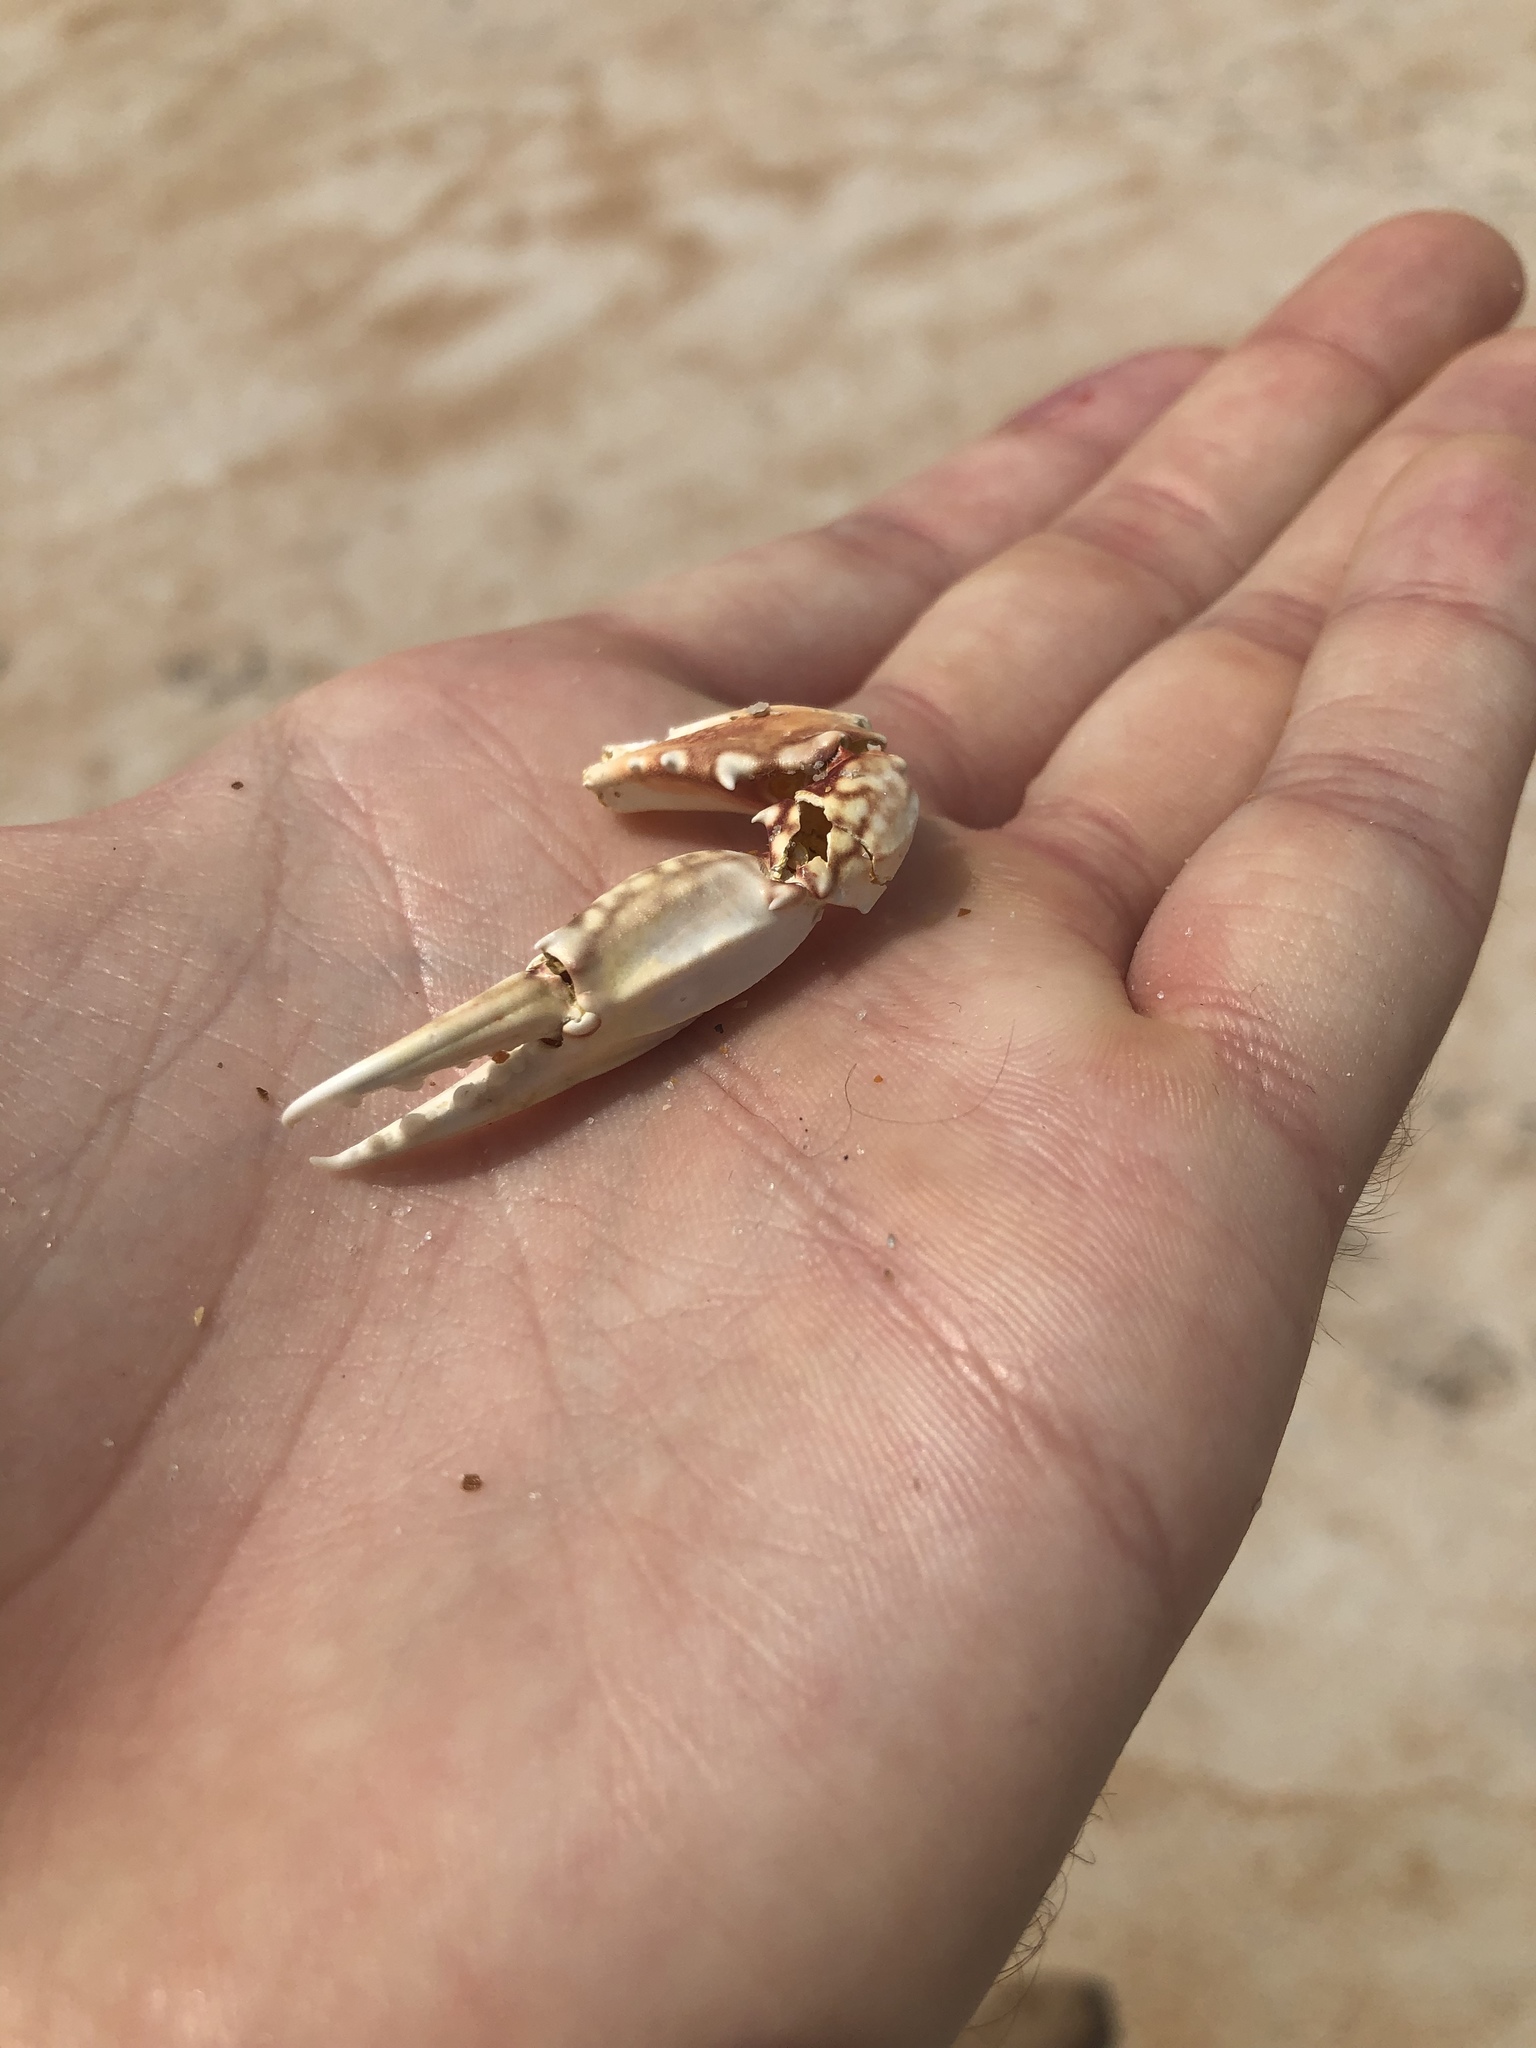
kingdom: Animalia
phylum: Arthropoda
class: Malacostraca
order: Decapoda
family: Portunidae
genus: Arenaeus
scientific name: Arenaeus cribrarius
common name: Speckled crab
